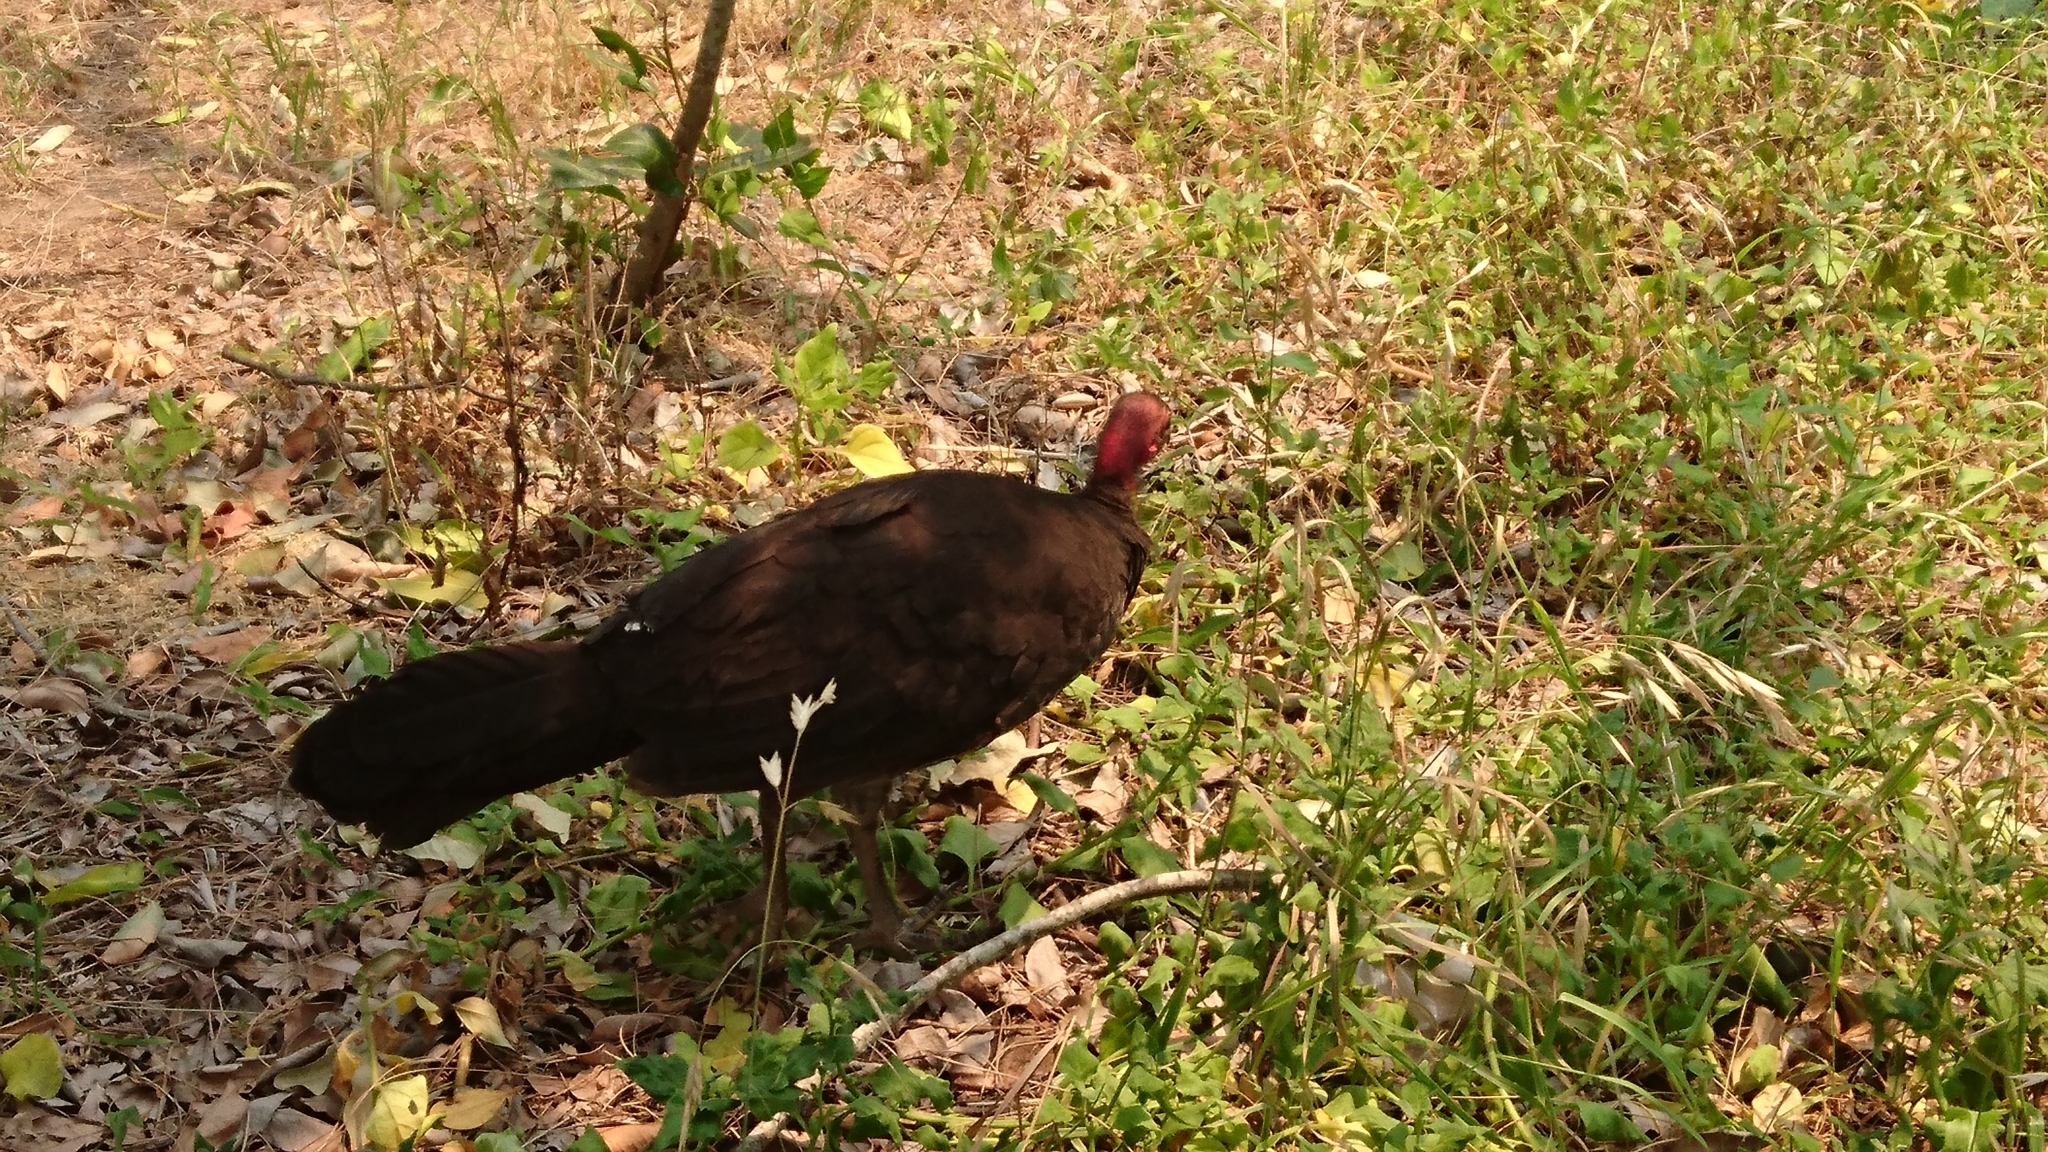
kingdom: Animalia
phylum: Chordata
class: Aves
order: Galliformes
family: Megapodiidae
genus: Alectura
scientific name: Alectura lathami
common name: Australian brushturkey
